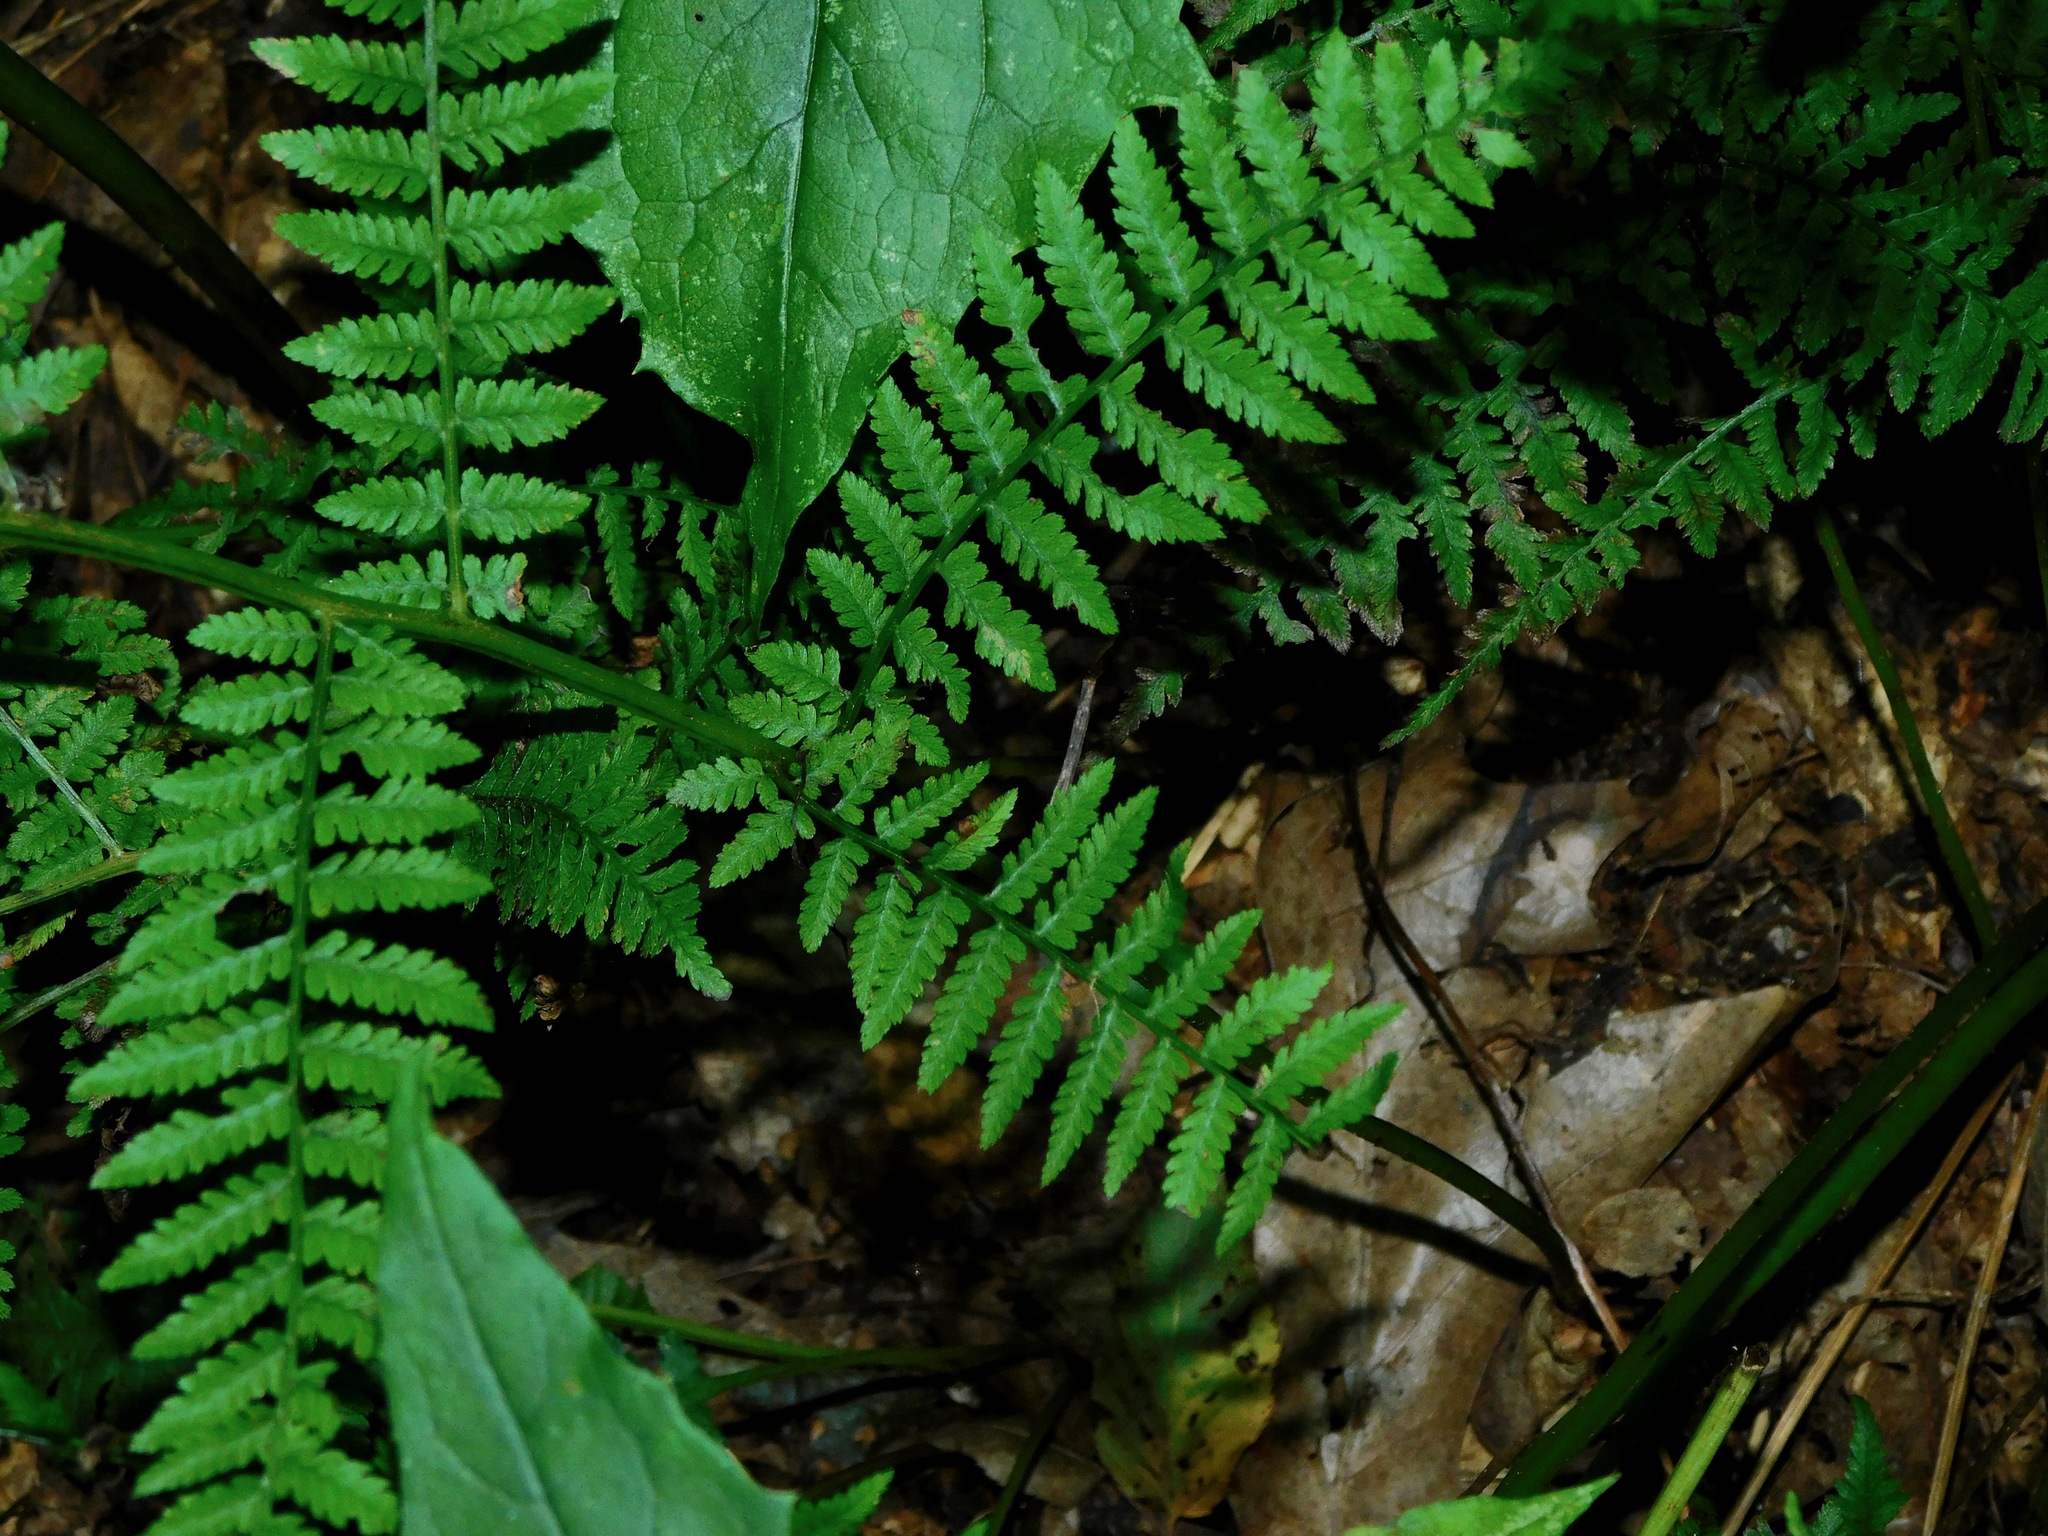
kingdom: Plantae
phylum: Tracheophyta
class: Polypodiopsida
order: Polypodiales
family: Athyriaceae
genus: Athyrium
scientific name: Athyrium asplenioides
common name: Southern lady fern
